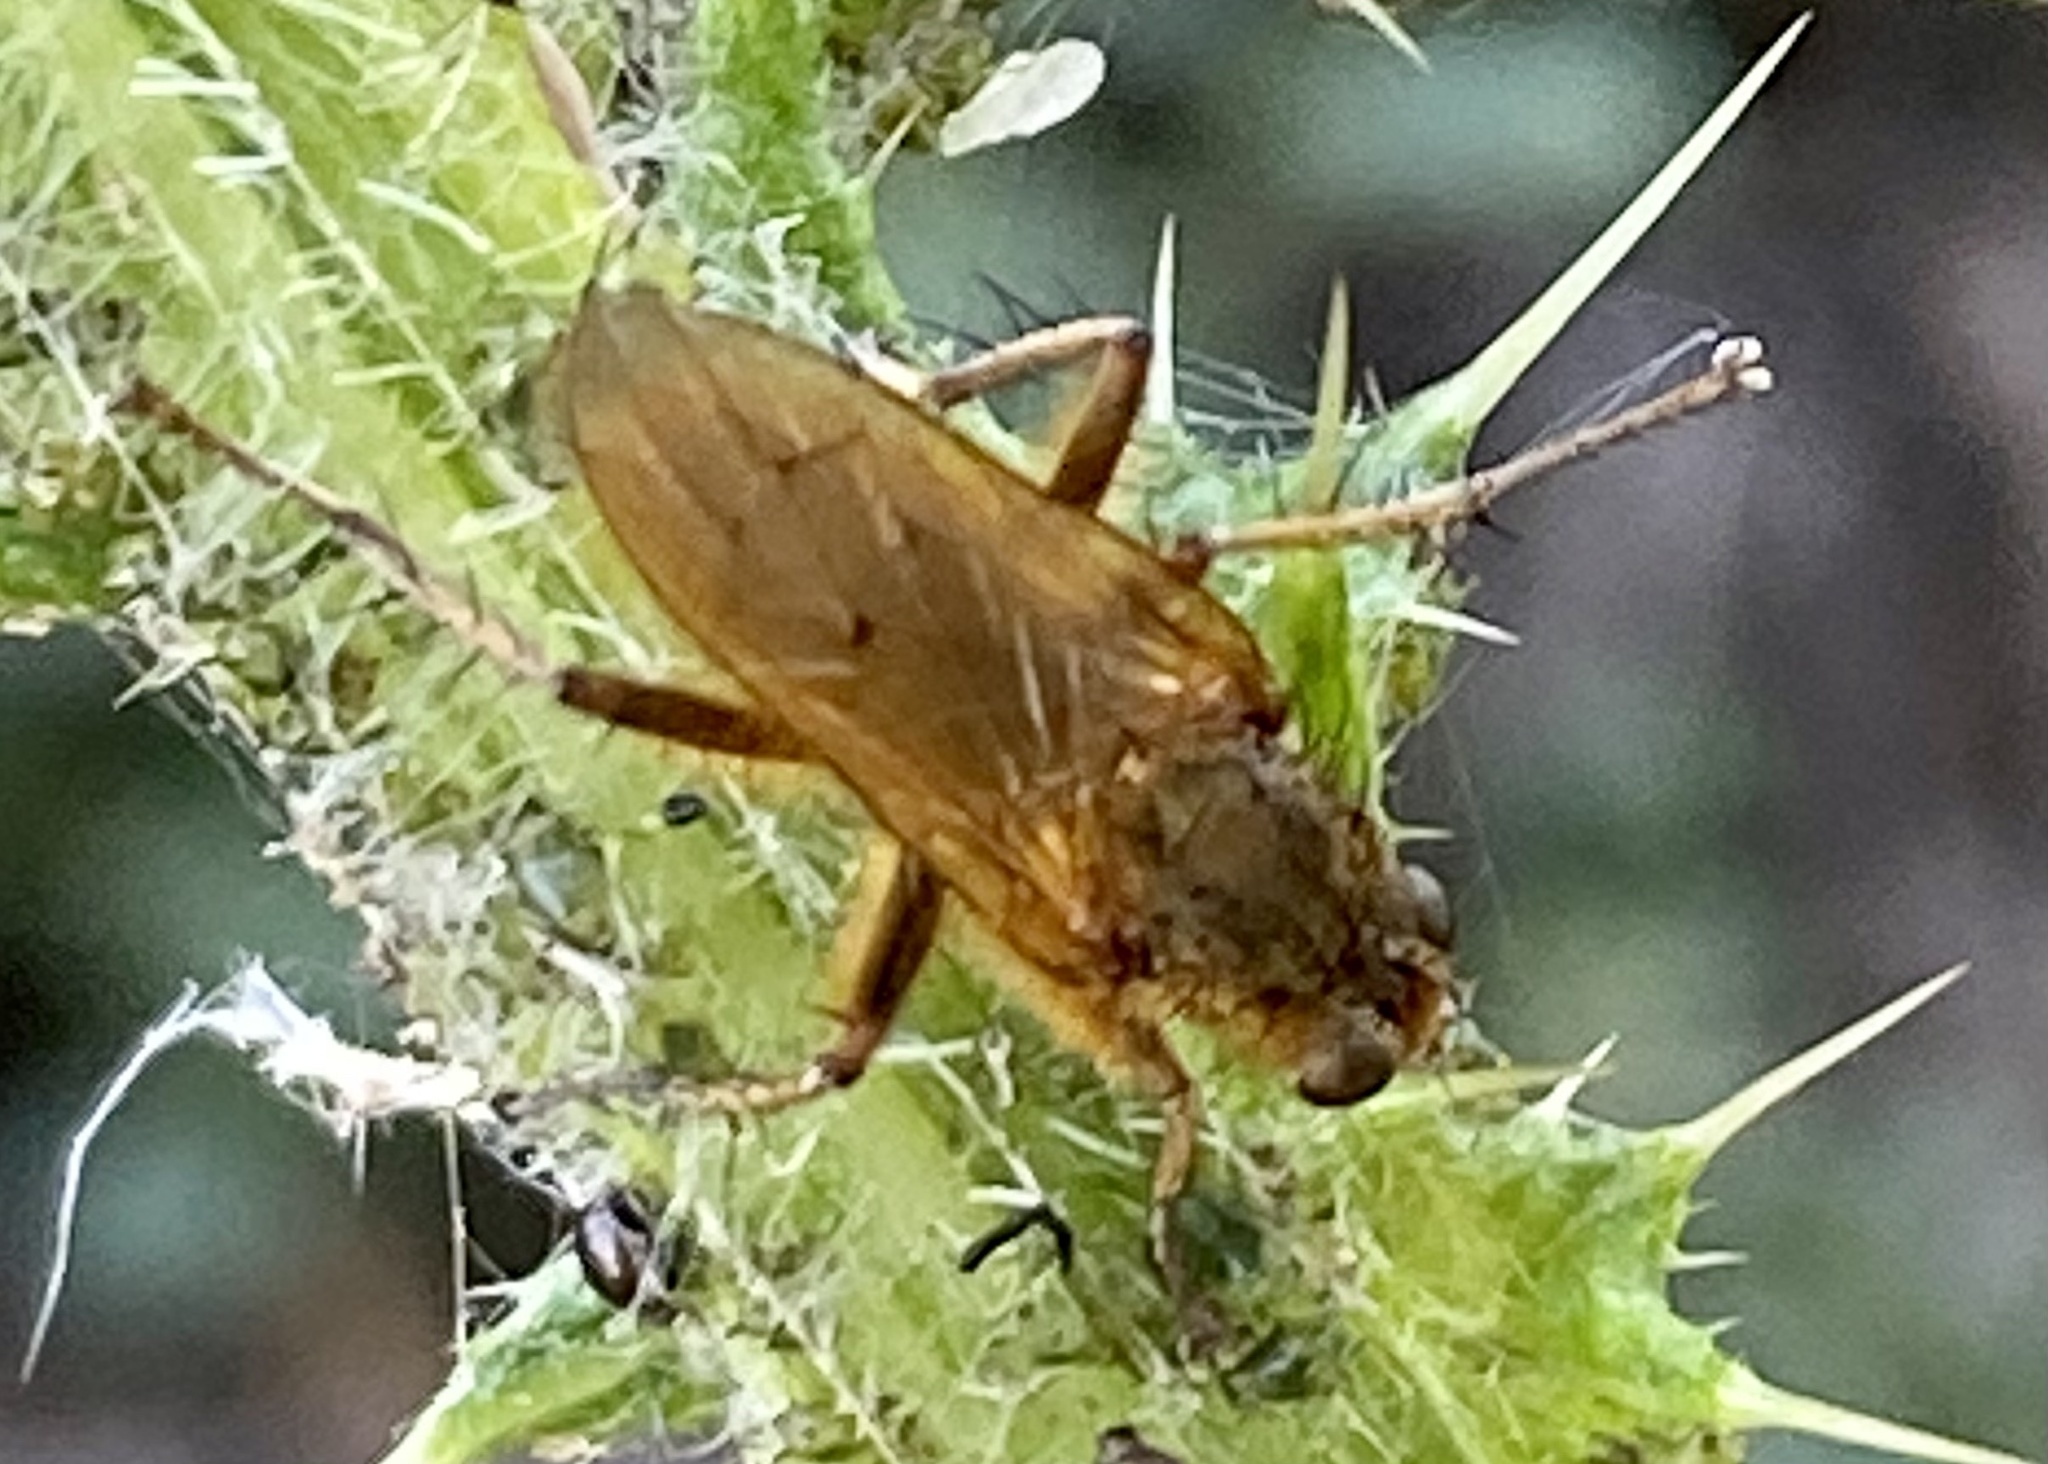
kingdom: Animalia
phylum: Arthropoda
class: Insecta
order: Diptera
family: Scathophagidae
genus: Scathophaga
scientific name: Scathophaga stercoraria
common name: Yellow dung fly
